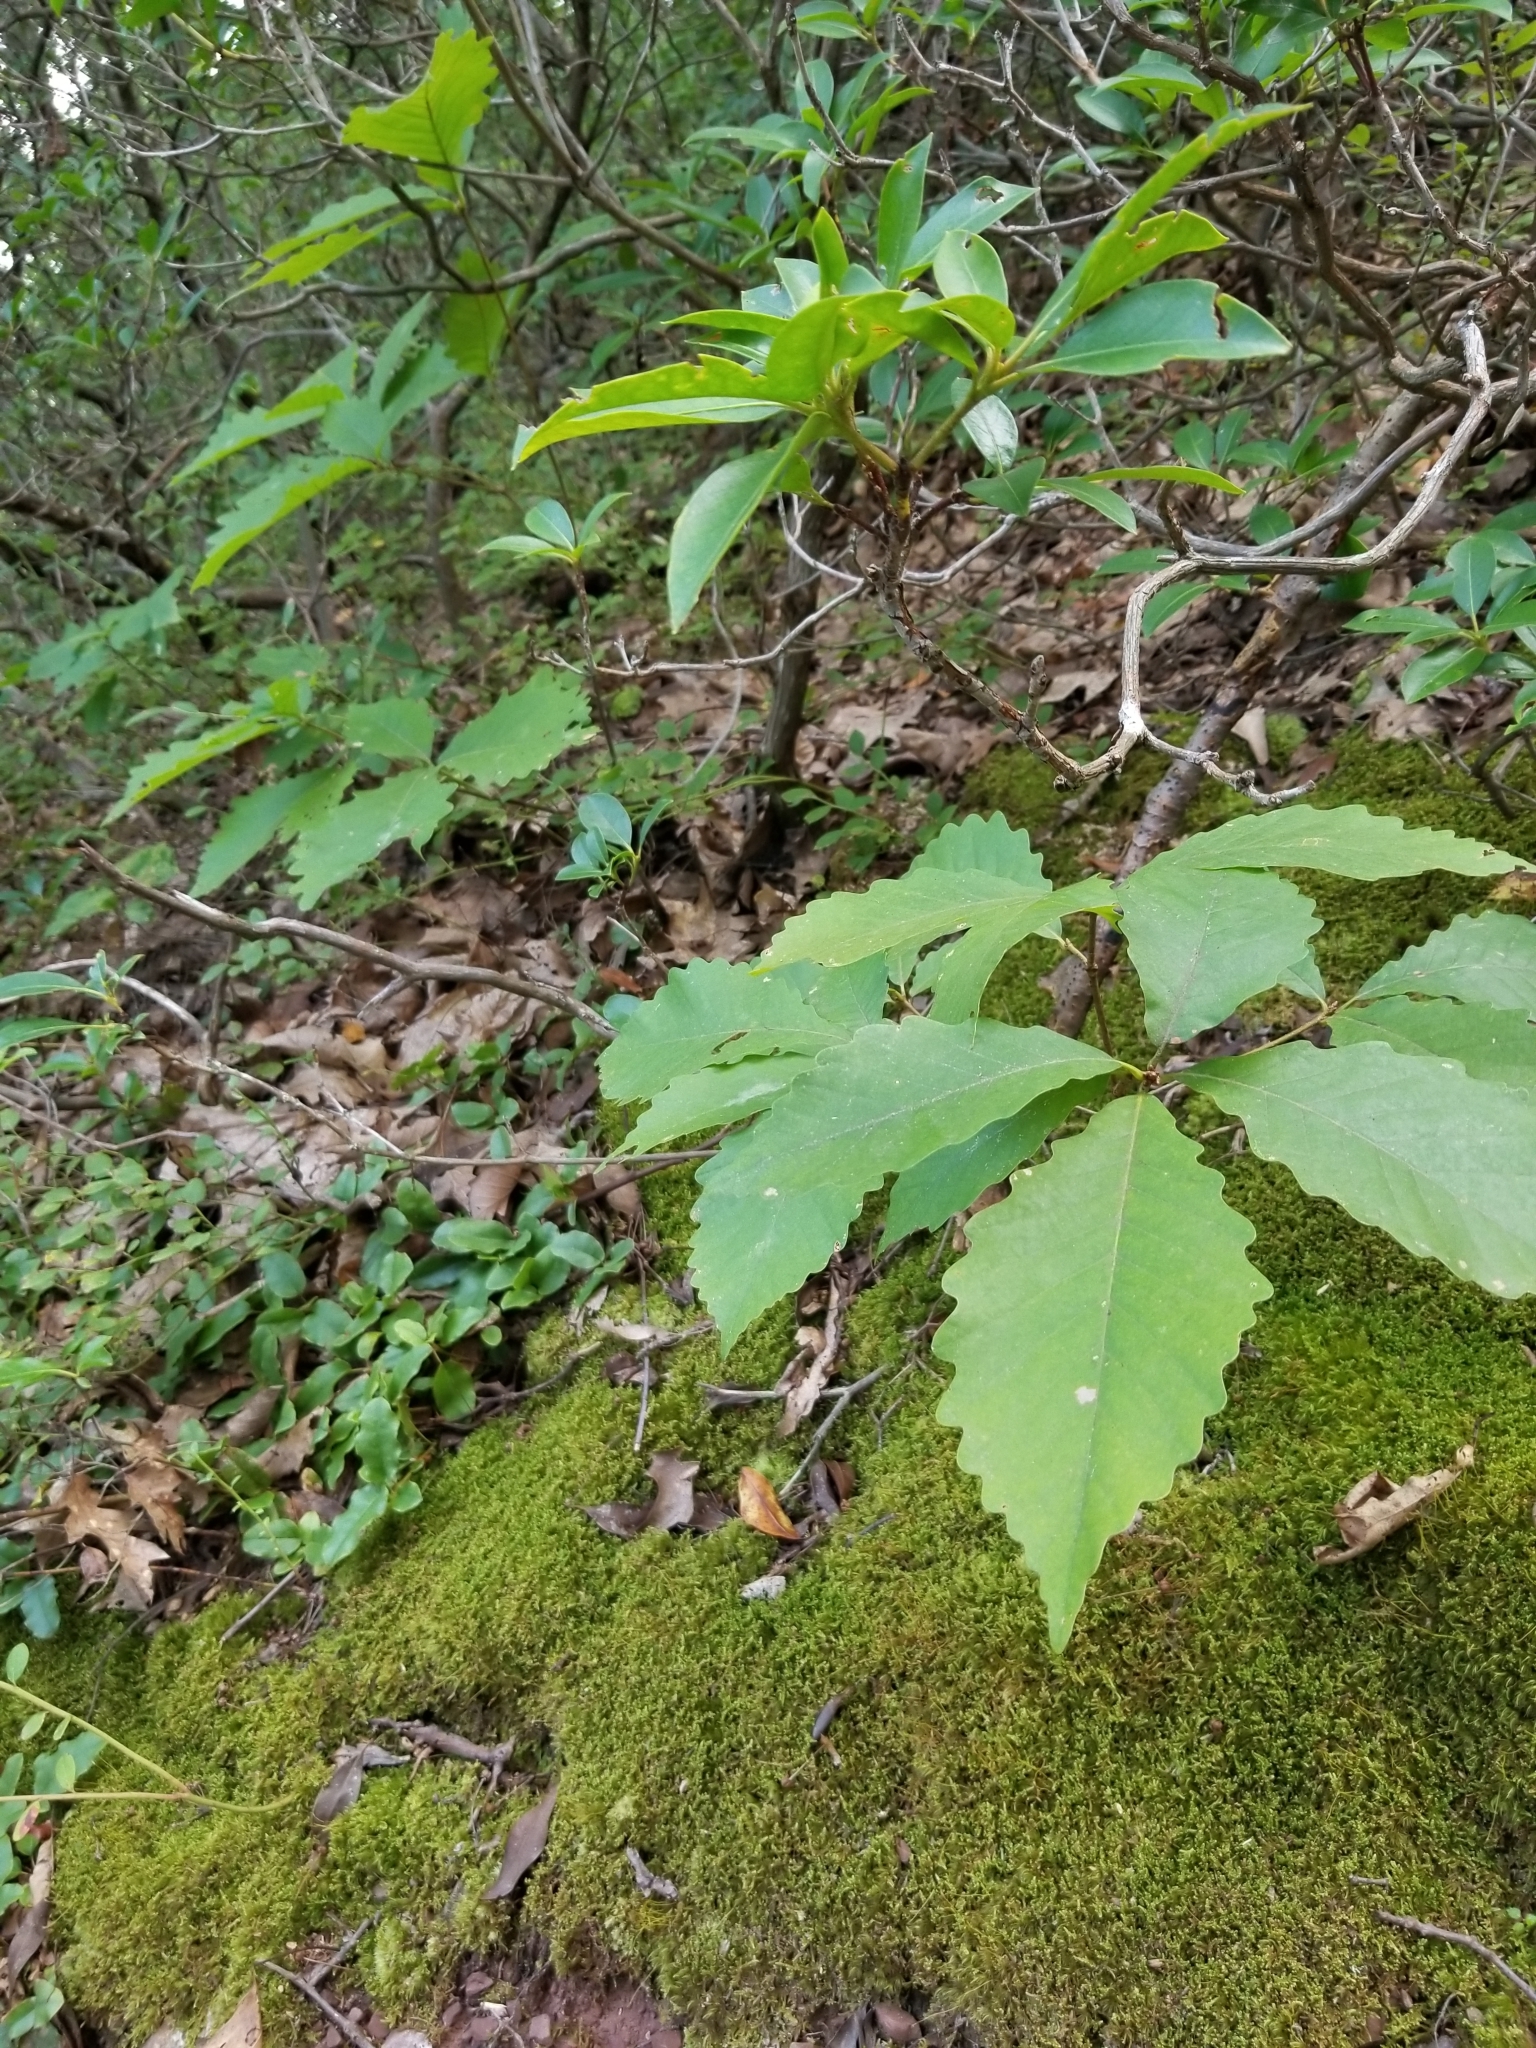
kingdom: Plantae
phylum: Tracheophyta
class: Magnoliopsida
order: Fagales
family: Fagaceae
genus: Quercus
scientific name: Quercus montana
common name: Chestnut oak
